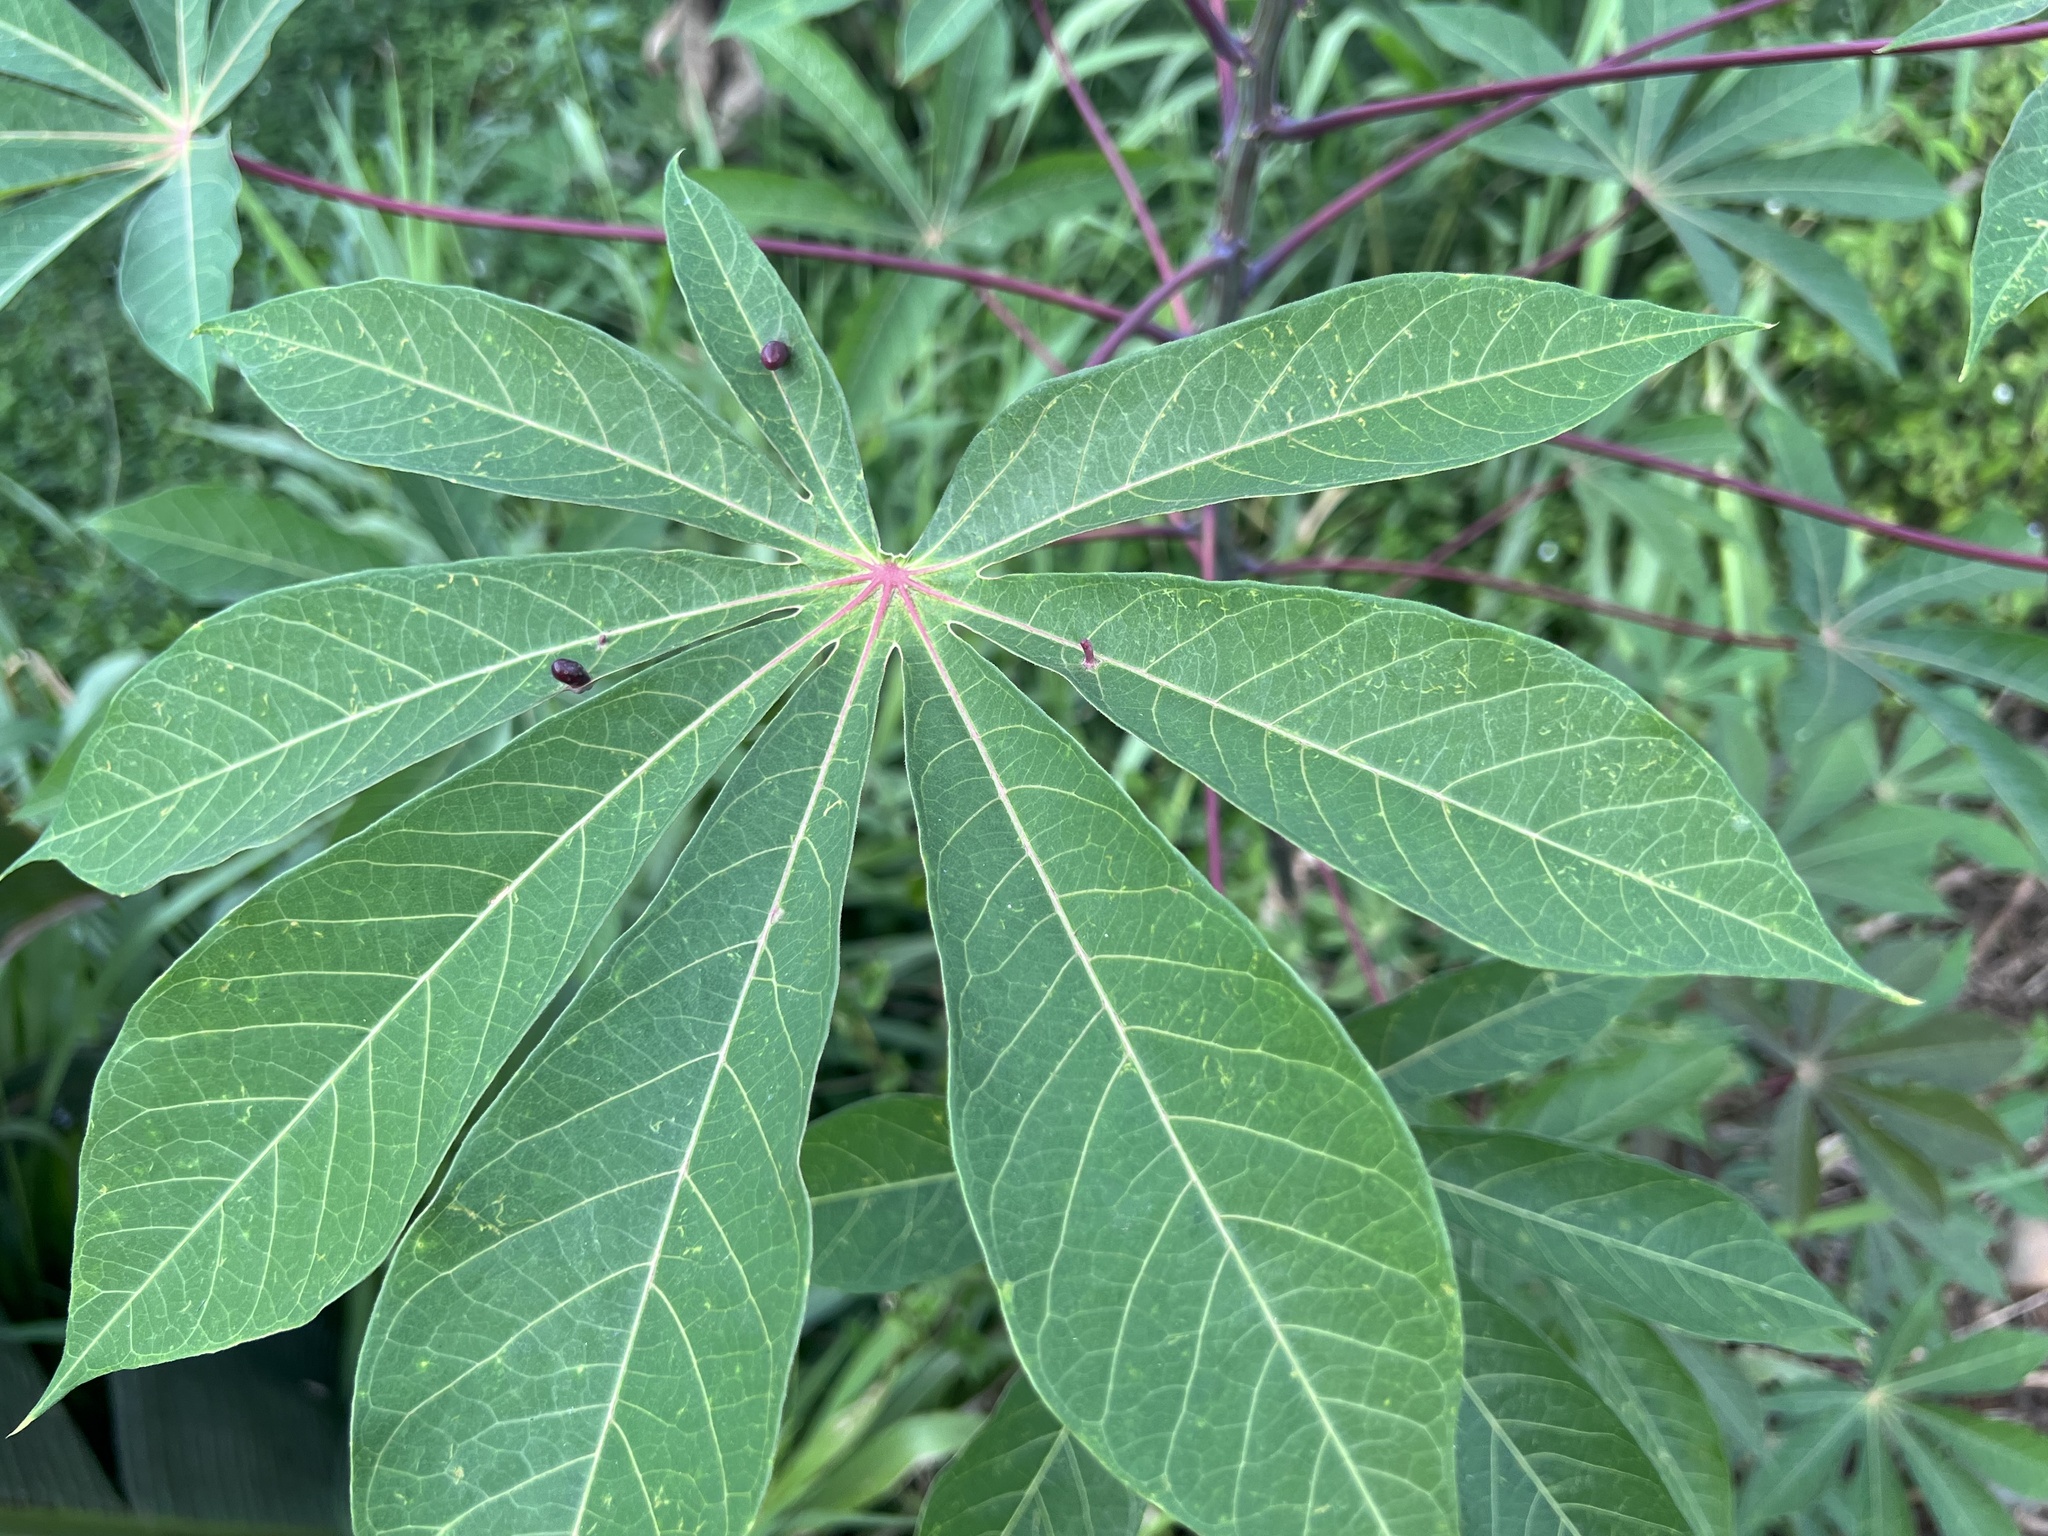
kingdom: Plantae
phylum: Tracheophyta
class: Magnoliopsida
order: Malpighiales
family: Euphorbiaceae
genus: Manihot
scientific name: Manihot esculenta
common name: Cassava
